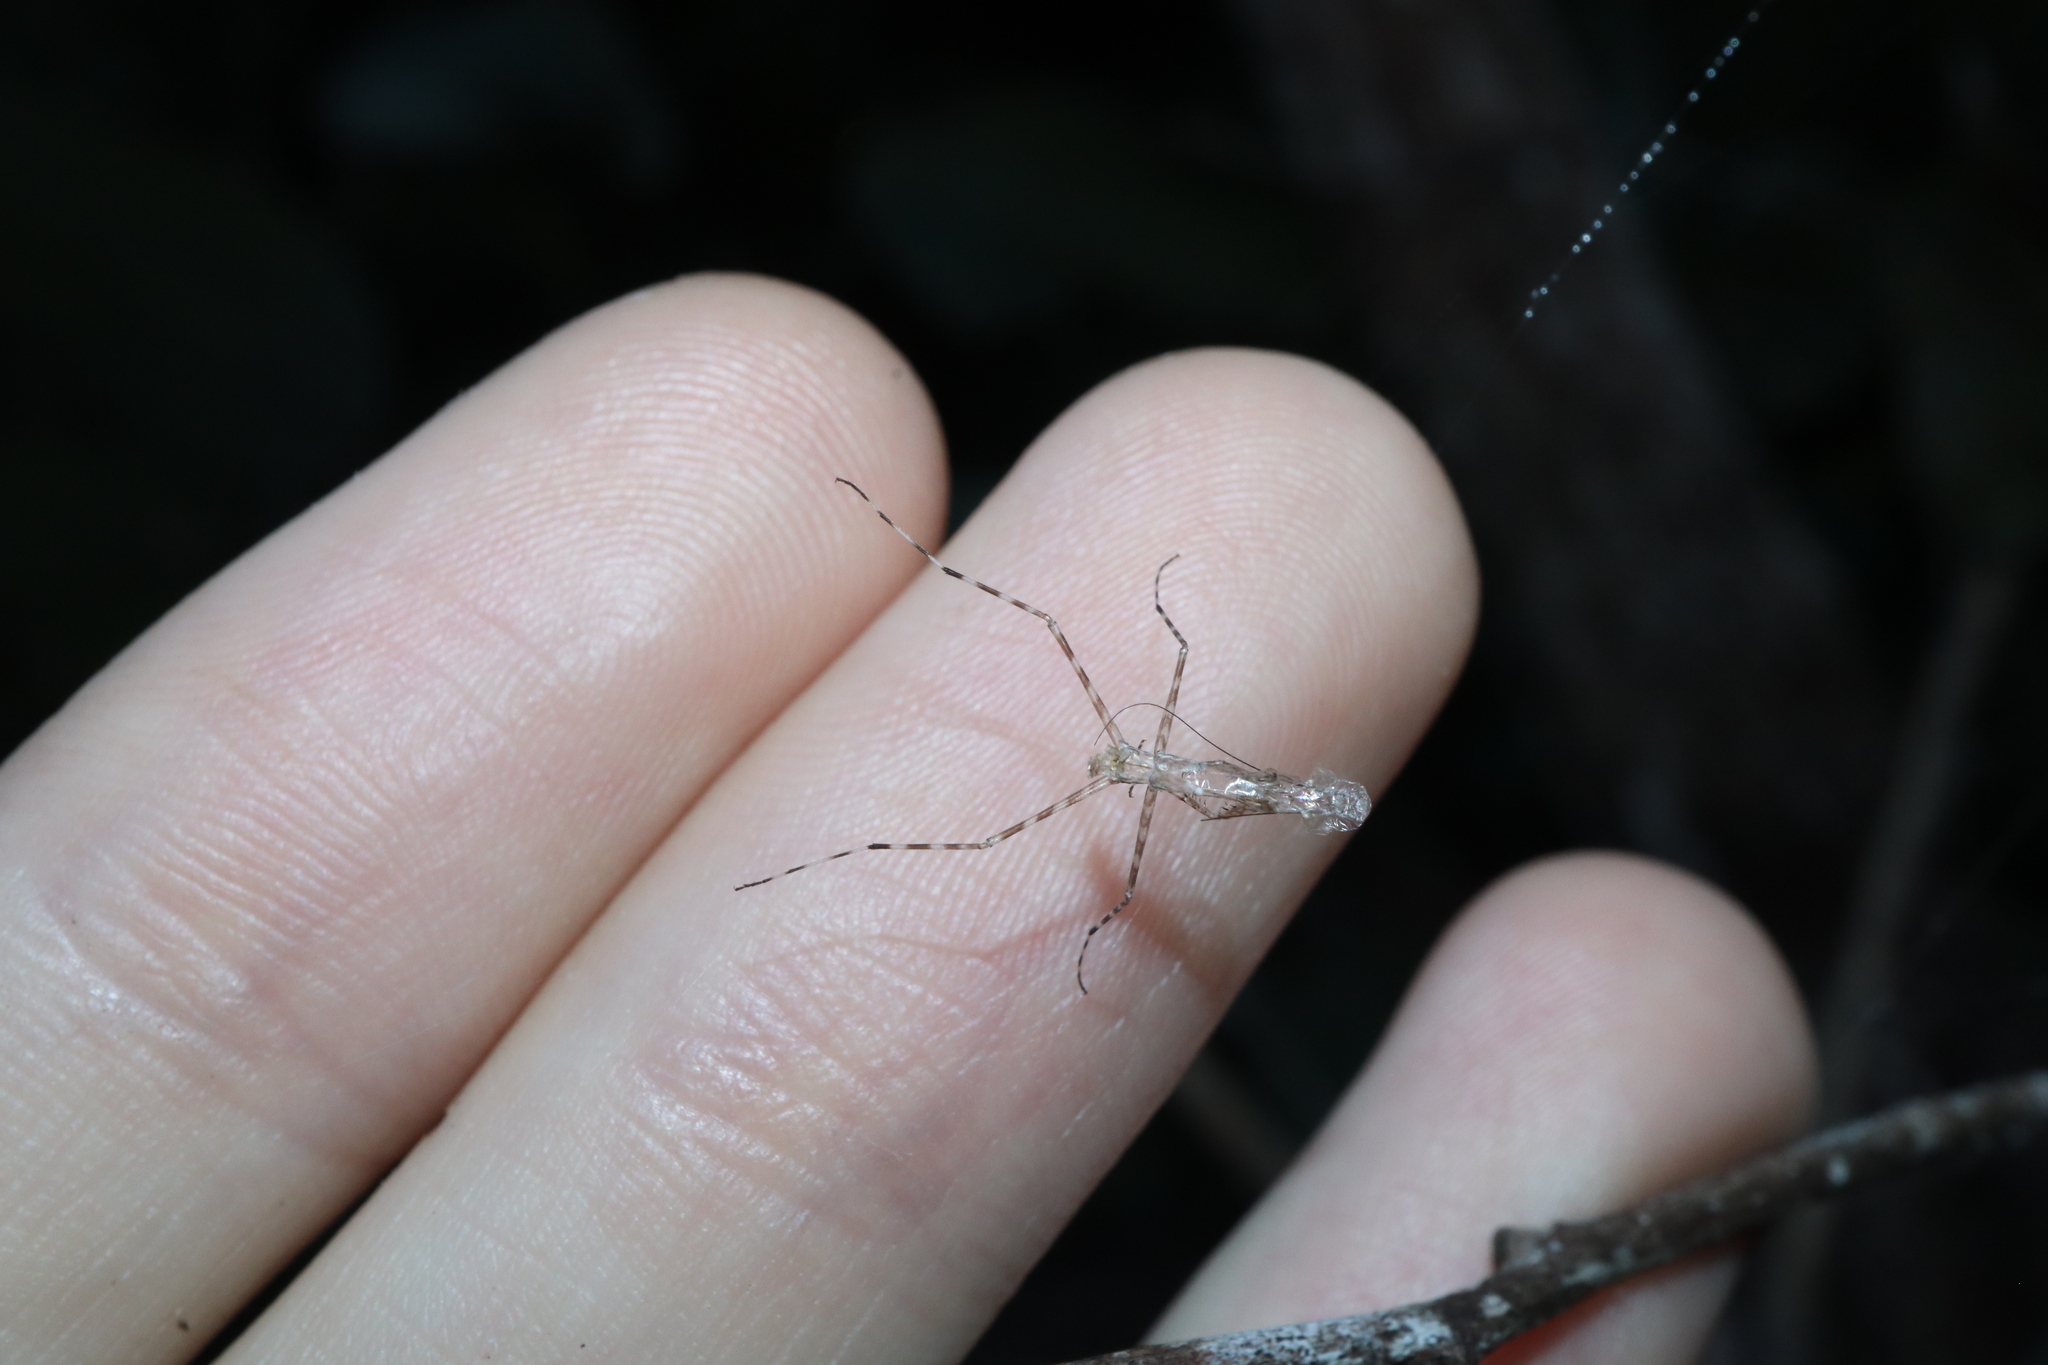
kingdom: Animalia
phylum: Arthropoda
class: Insecta
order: Mantodea
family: Nanomantidae
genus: Ciulfina
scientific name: Ciulfina rentzi
